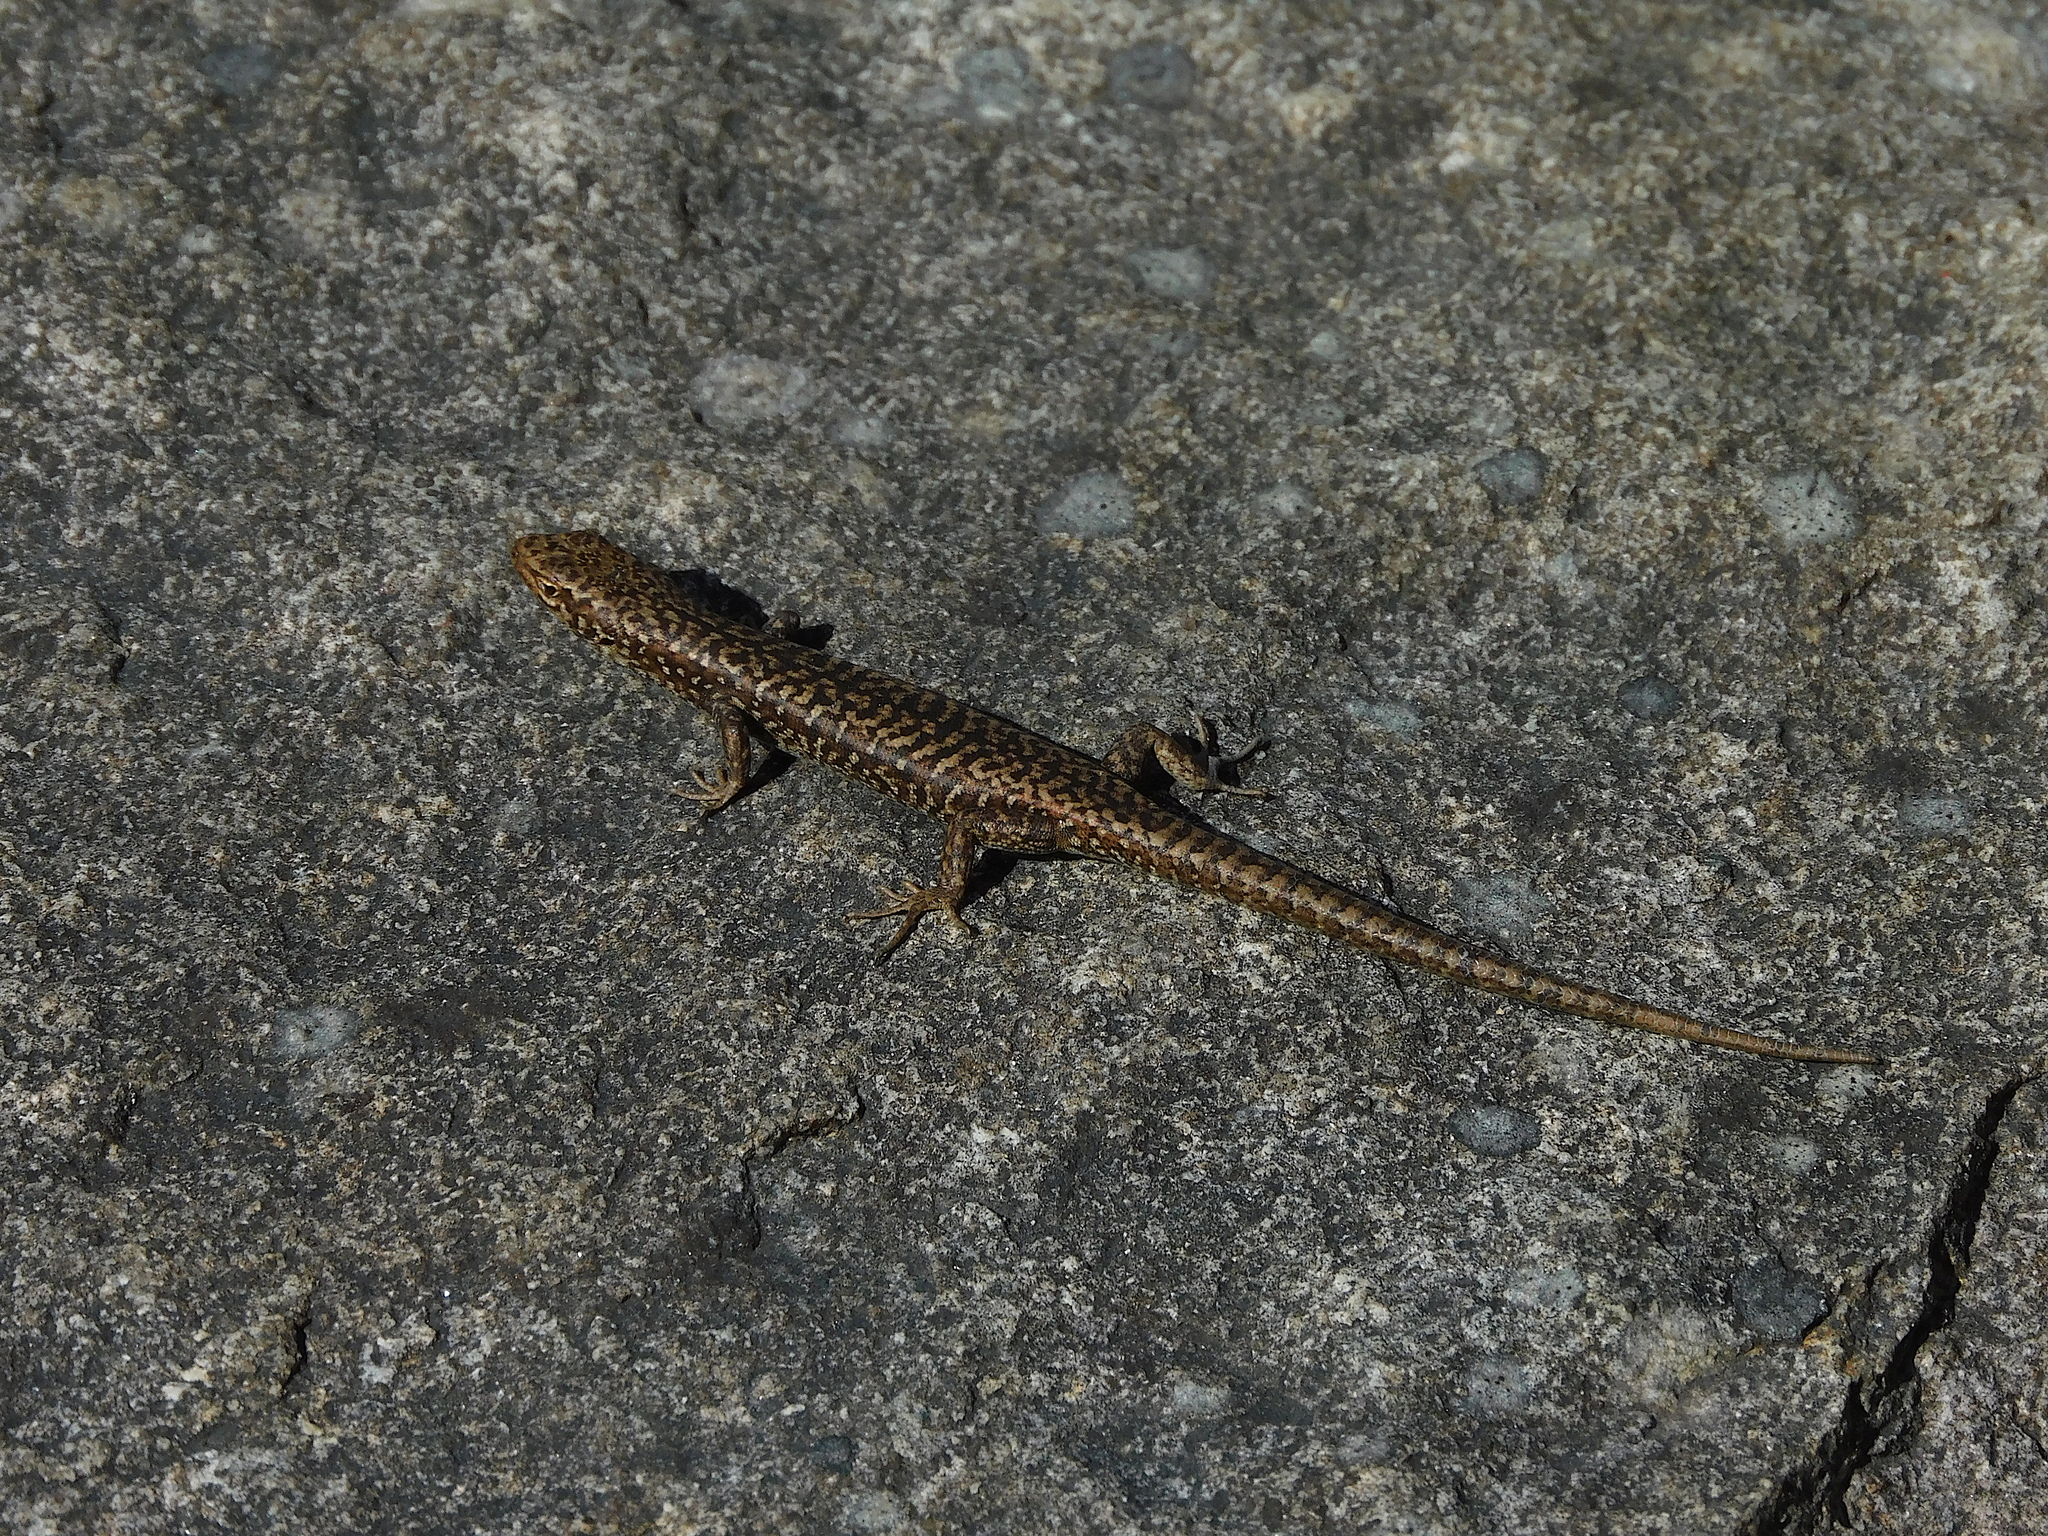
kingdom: Animalia
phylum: Chordata
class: Squamata
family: Scincidae
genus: Carinascincus
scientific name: Carinascincus ocellatus
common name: Ocellated cool-skink
